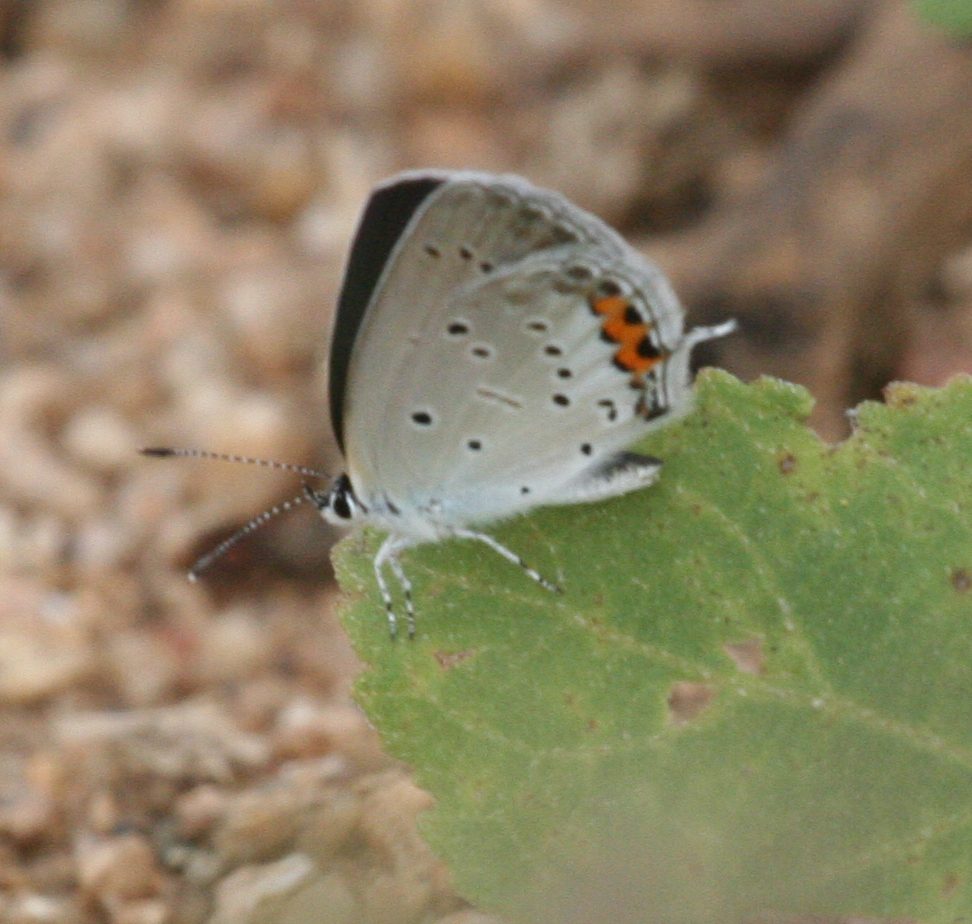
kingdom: Animalia
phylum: Arthropoda
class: Insecta
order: Lepidoptera
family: Lycaenidae
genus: Elkalyce
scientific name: Elkalyce argiades
